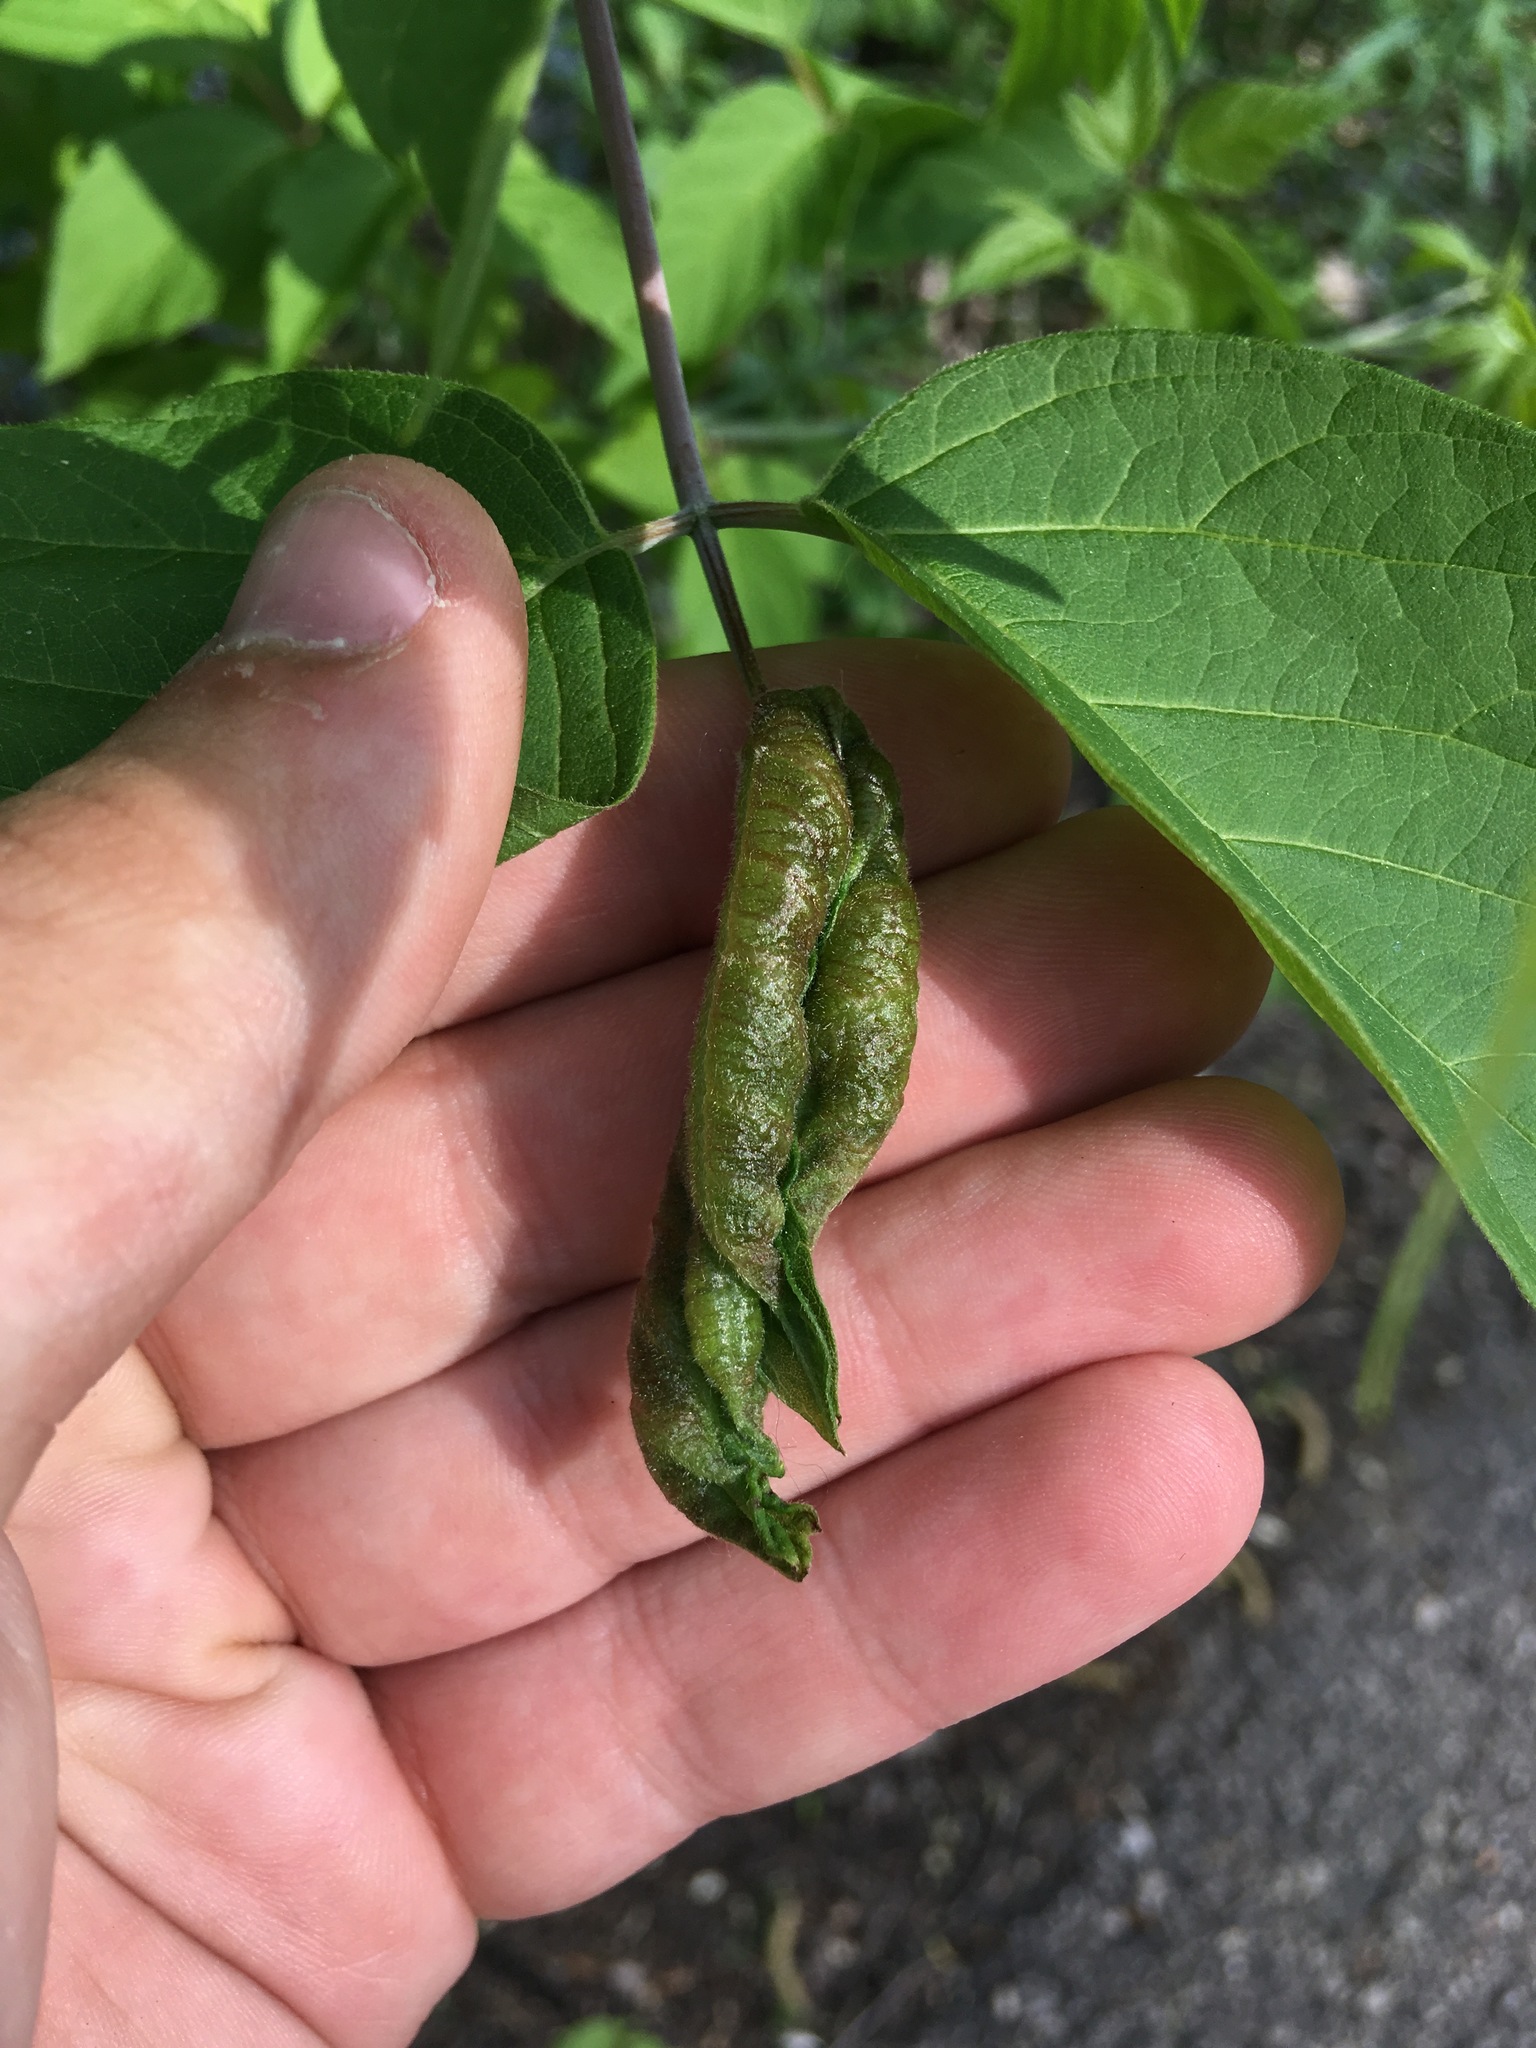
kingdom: Animalia
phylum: Arthropoda
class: Insecta
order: Diptera
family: Cecidomyiidae
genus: Contarinia
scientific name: Contarinia negundinis
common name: Boxelder budgall midge
